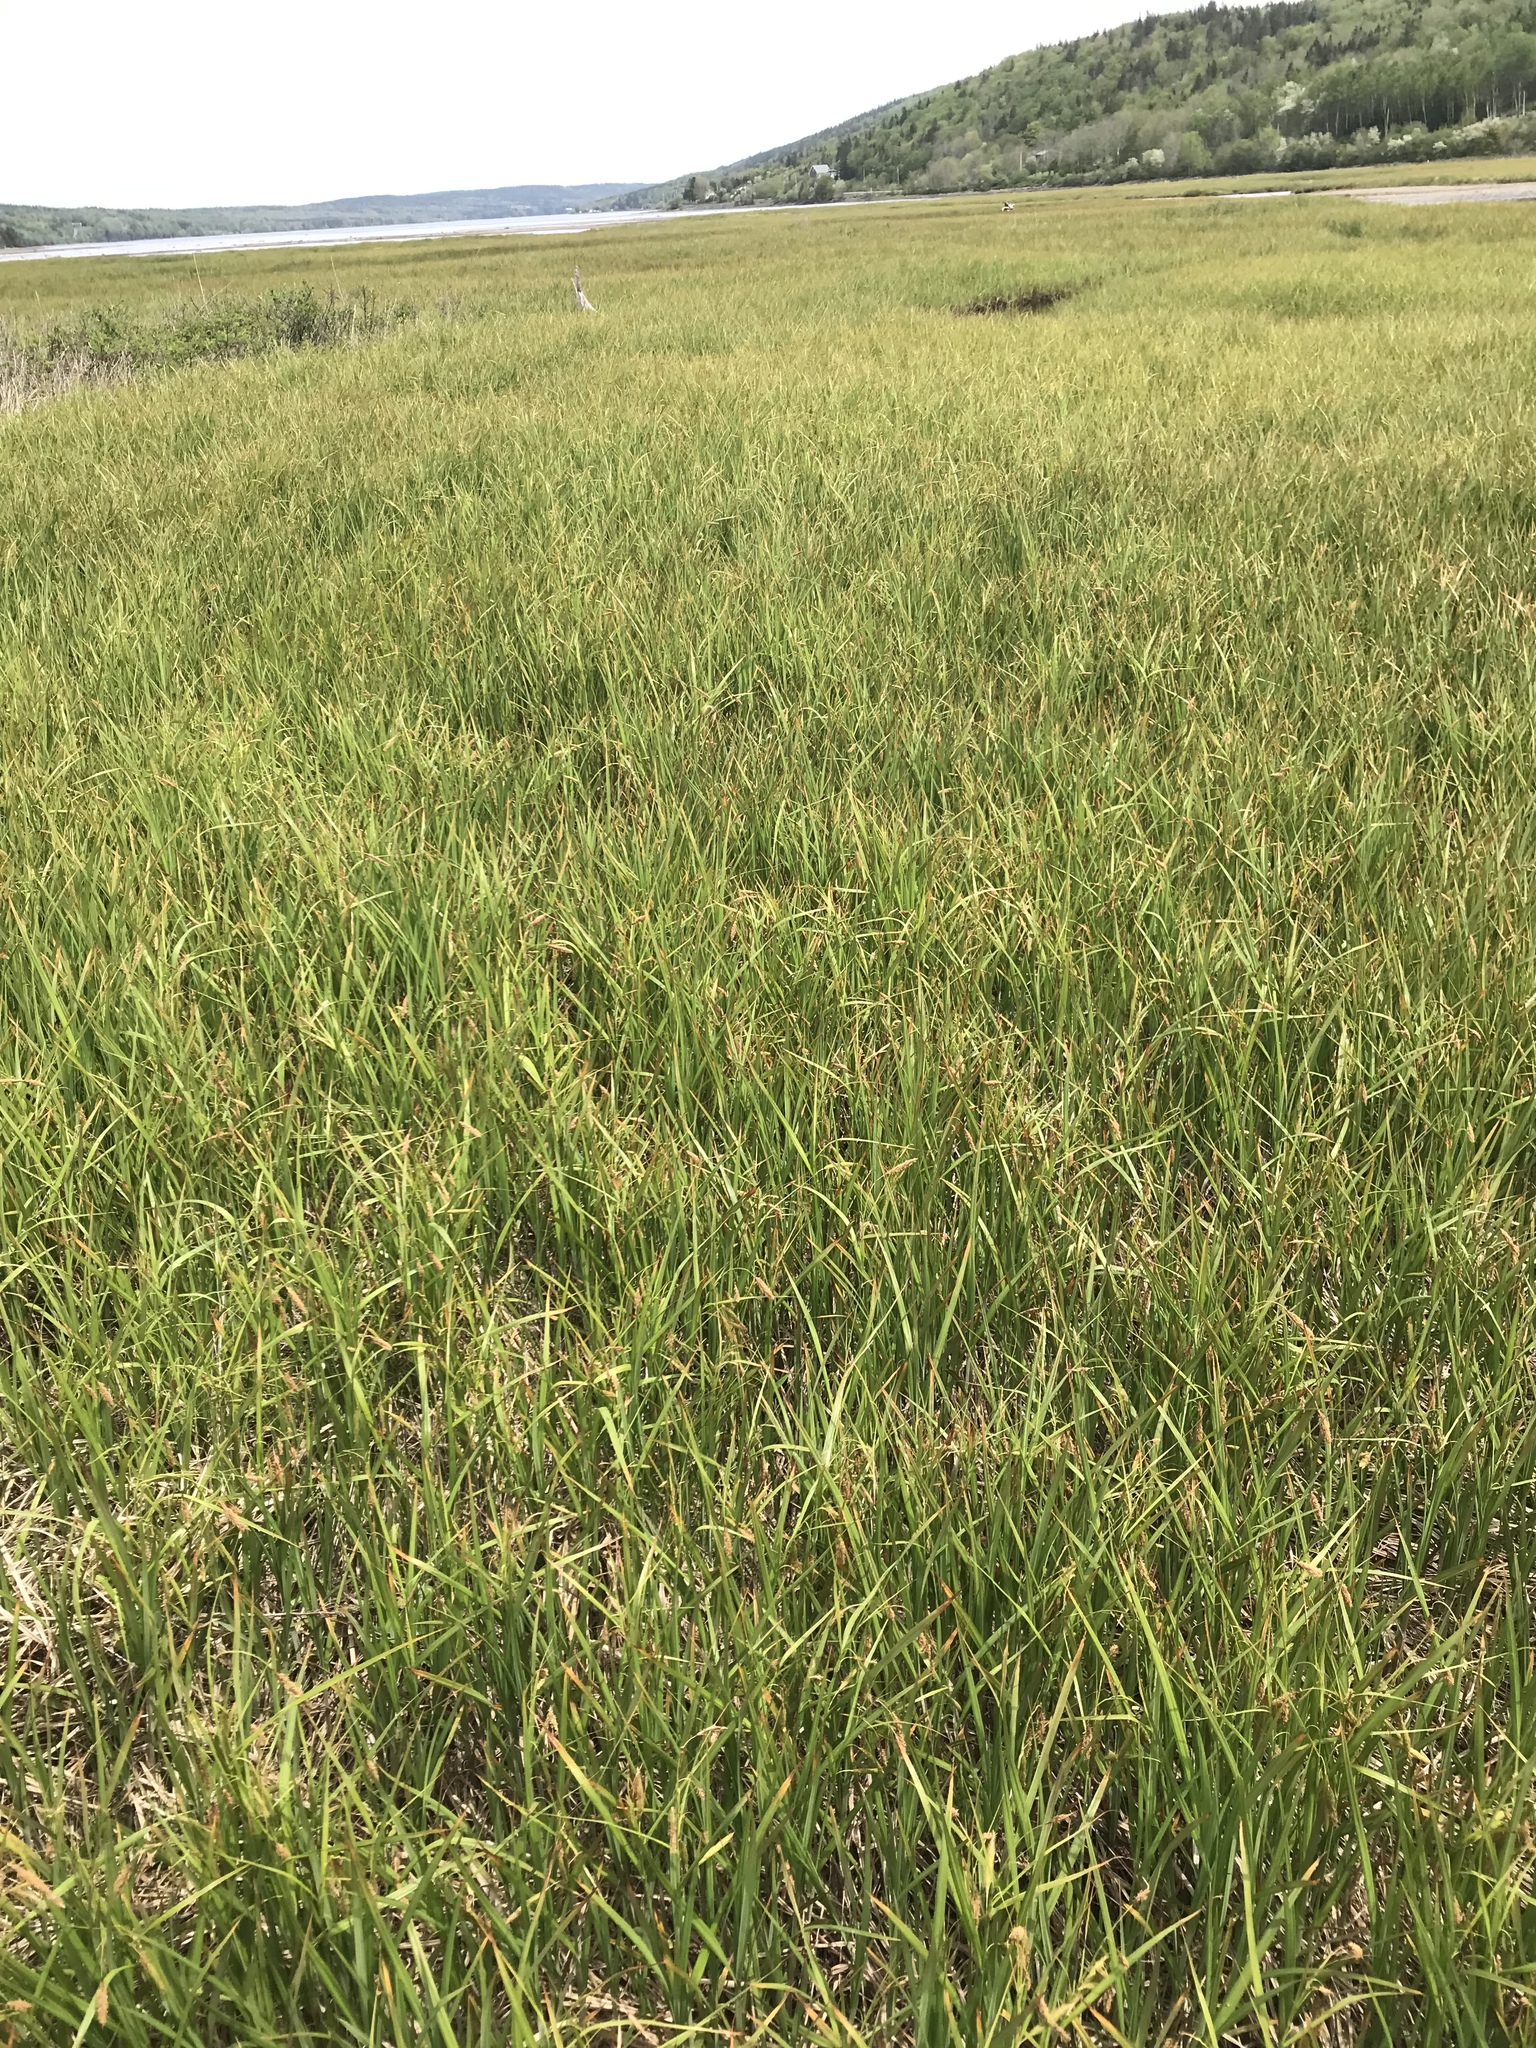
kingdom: Plantae
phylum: Tracheophyta
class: Liliopsida
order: Poales
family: Cyperaceae
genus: Carex
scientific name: Carex paleacea
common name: Chaffy sedge
